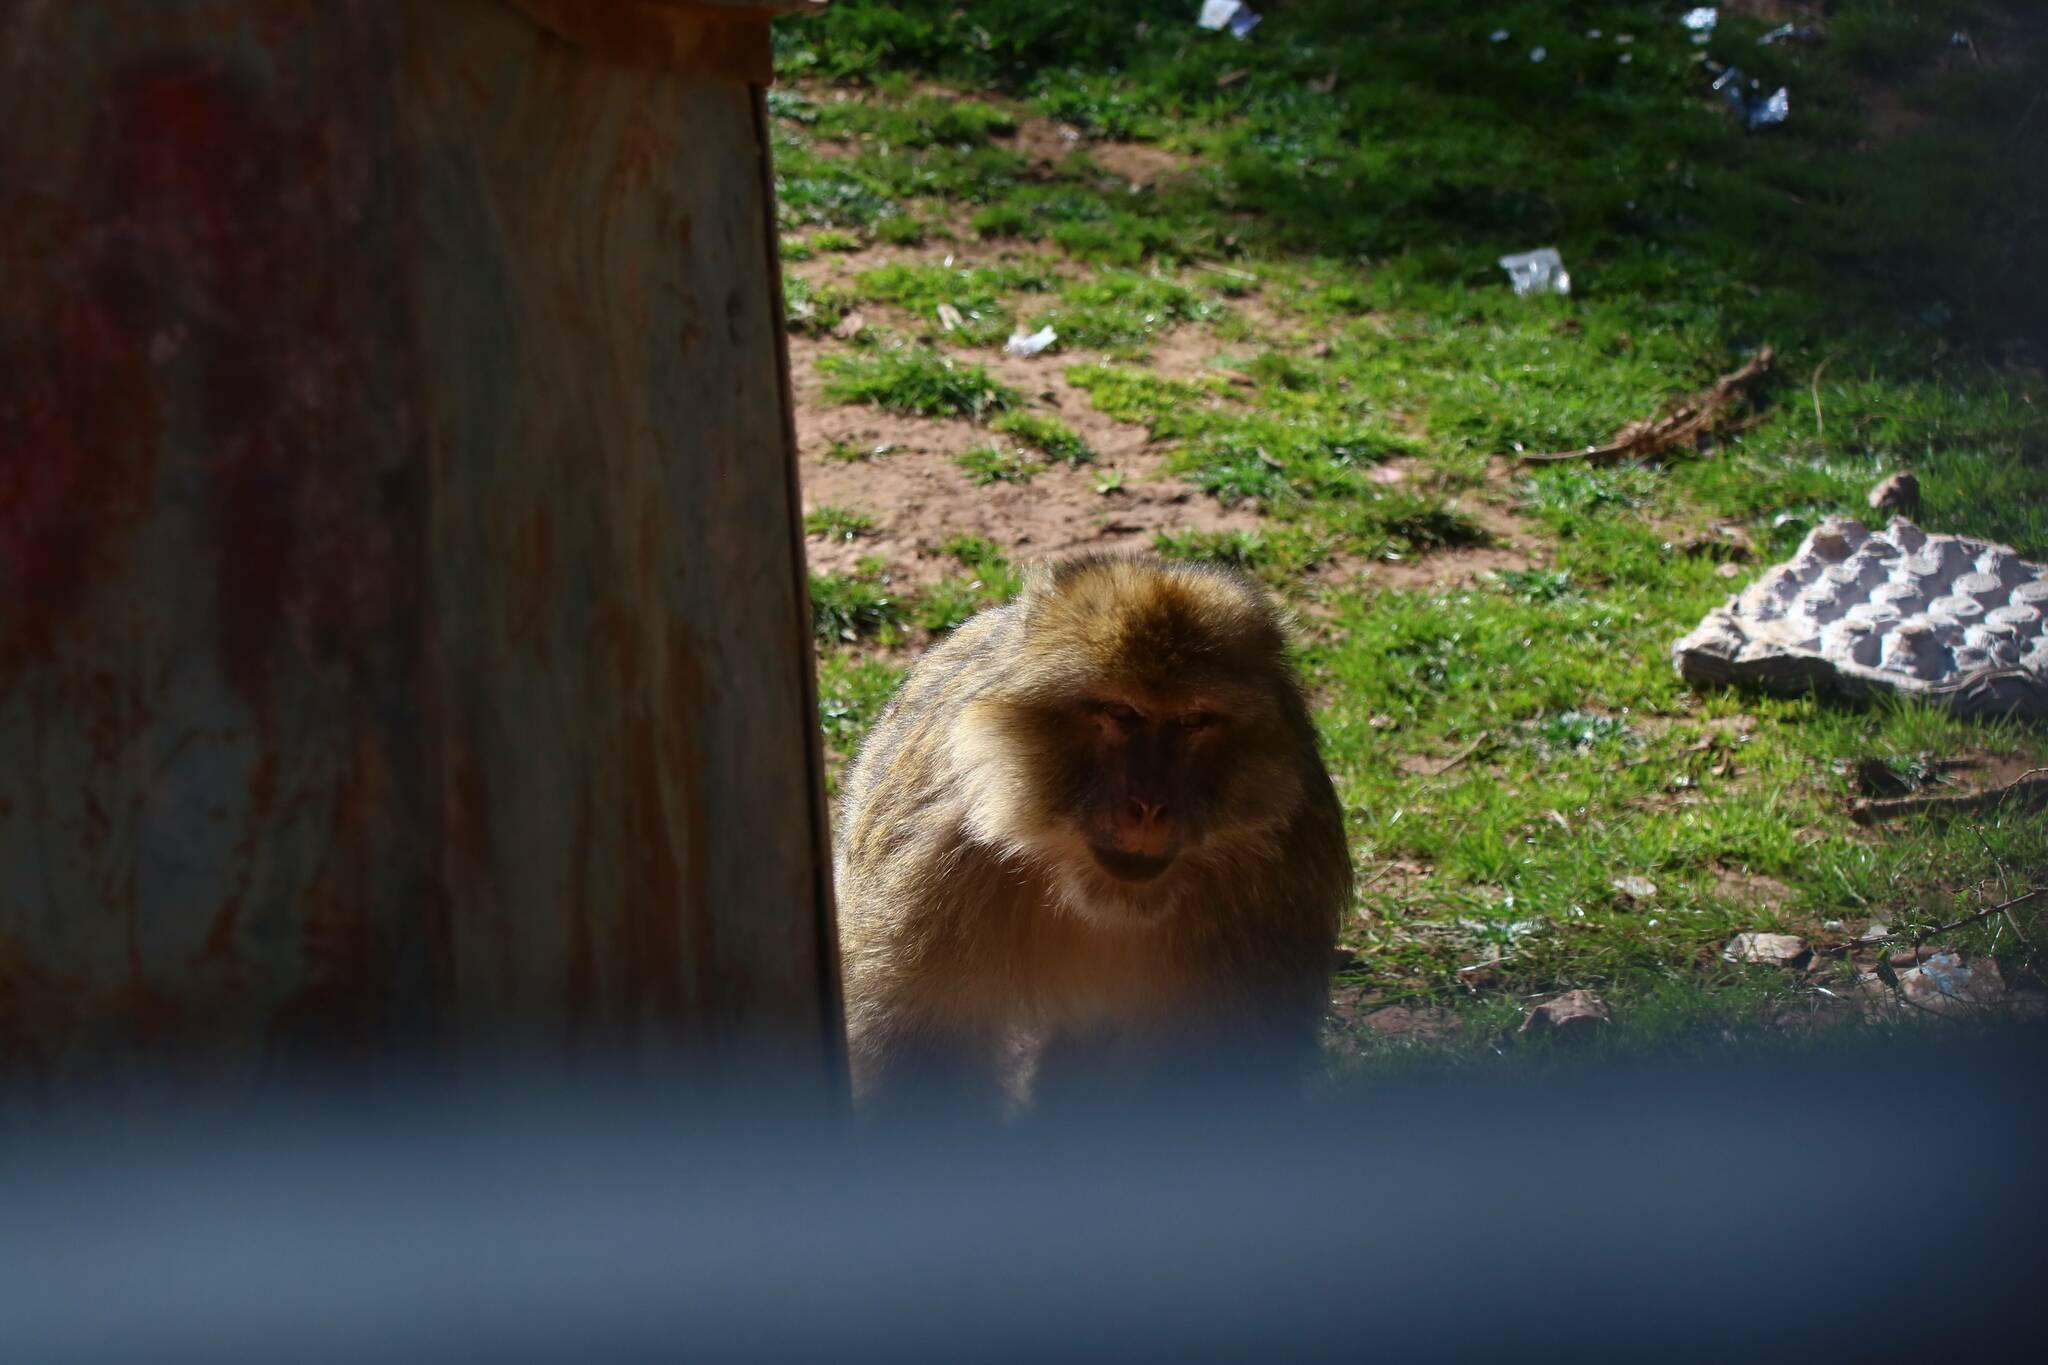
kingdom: Animalia
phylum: Chordata
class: Mammalia
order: Primates
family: Cercopithecidae
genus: Macaca
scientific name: Macaca sylvanus
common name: Barbary macaque
